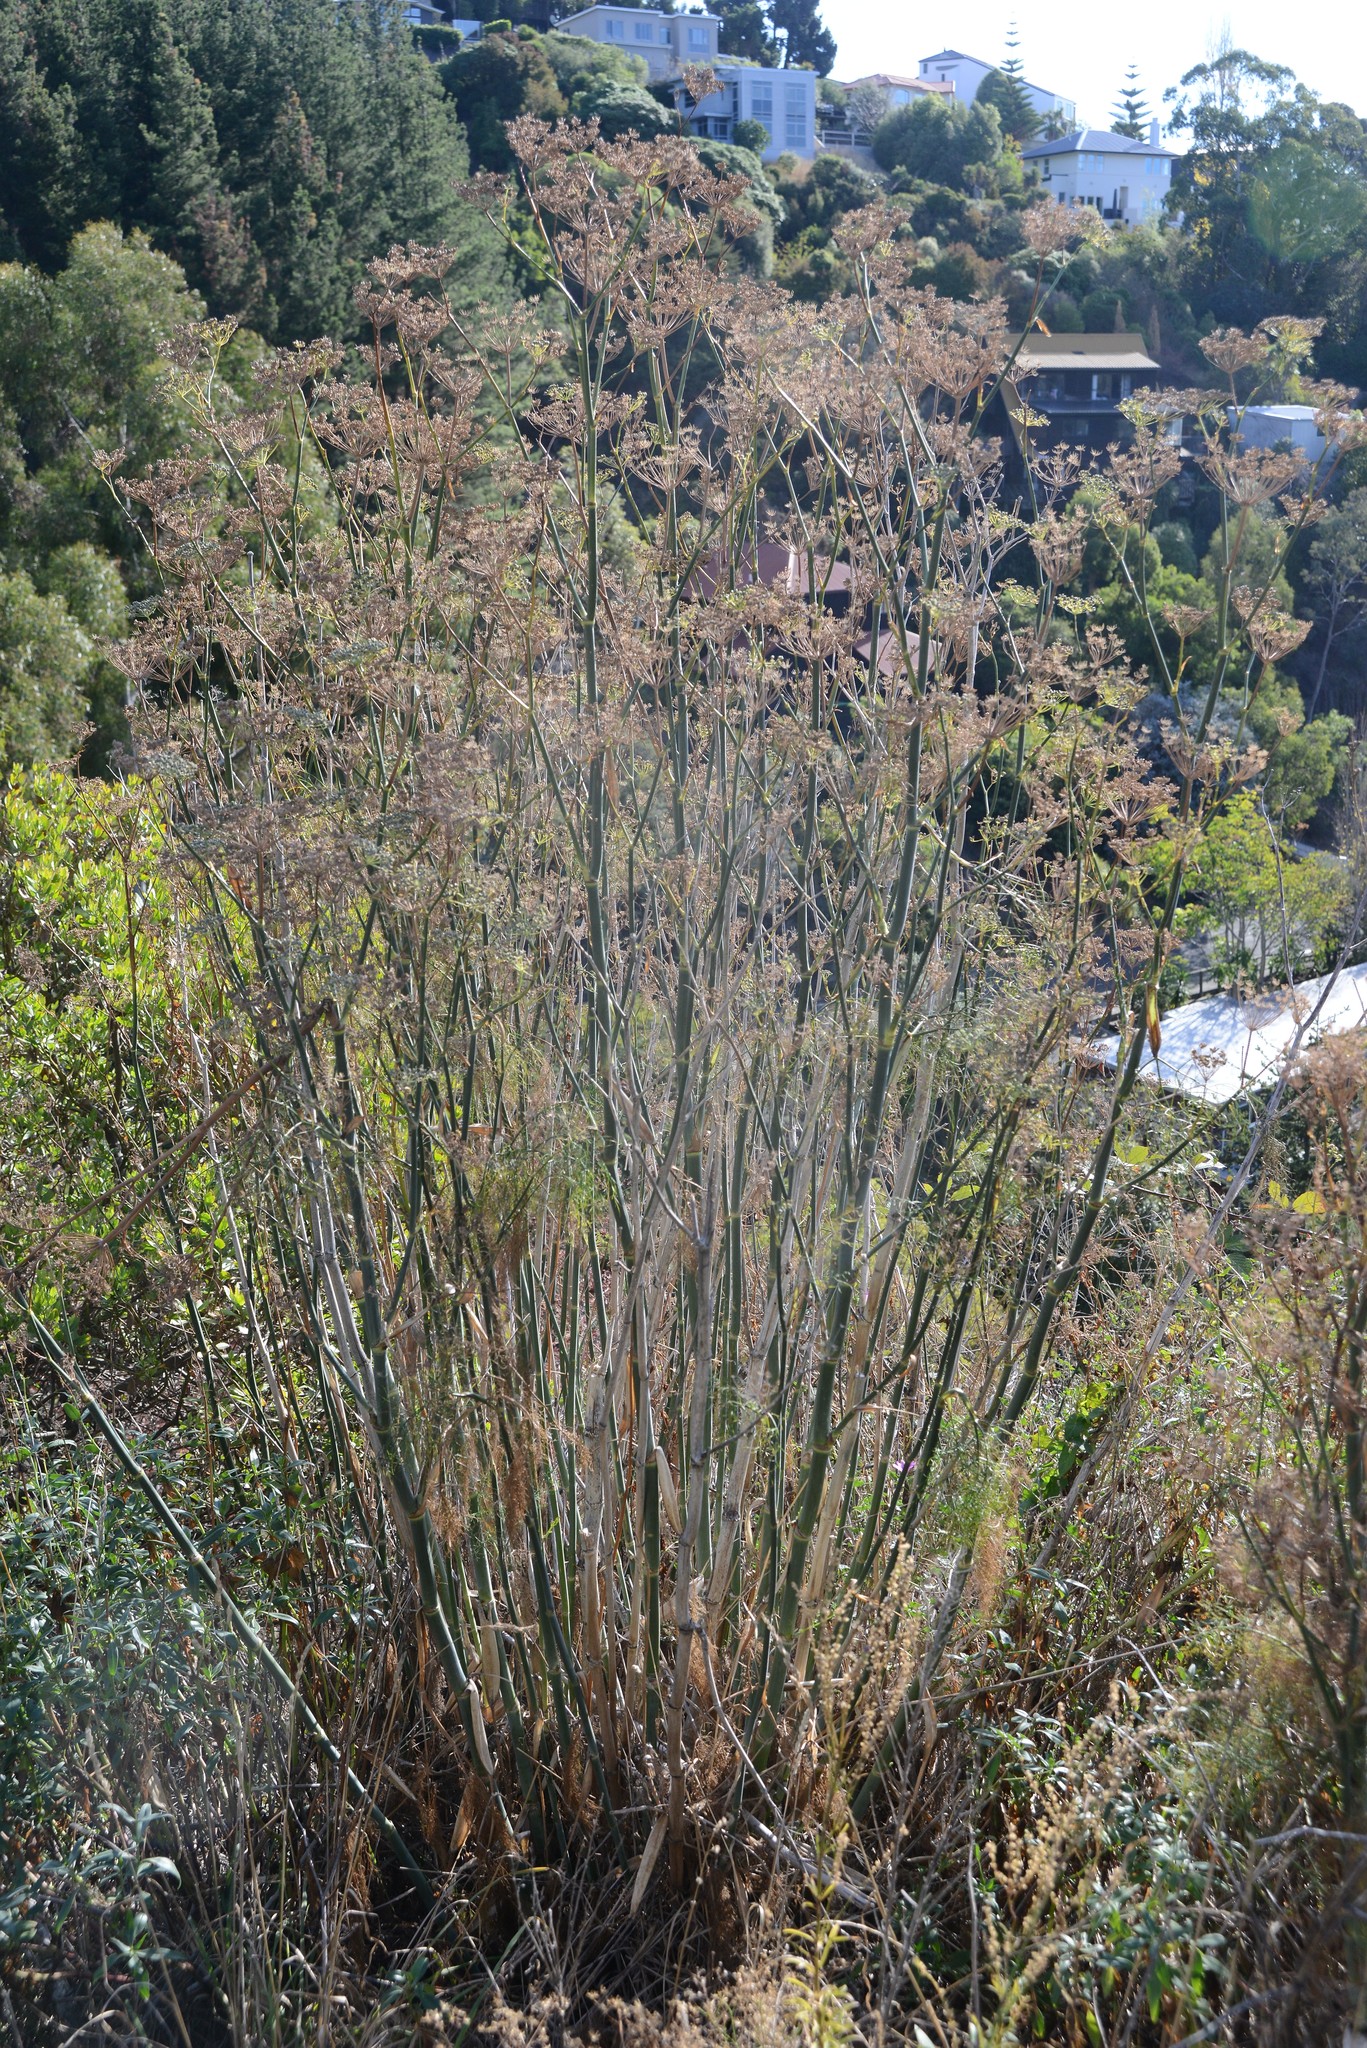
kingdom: Plantae
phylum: Tracheophyta
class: Magnoliopsida
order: Apiales
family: Apiaceae
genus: Foeniculum
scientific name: Foeniculum vulgare
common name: Fennel
